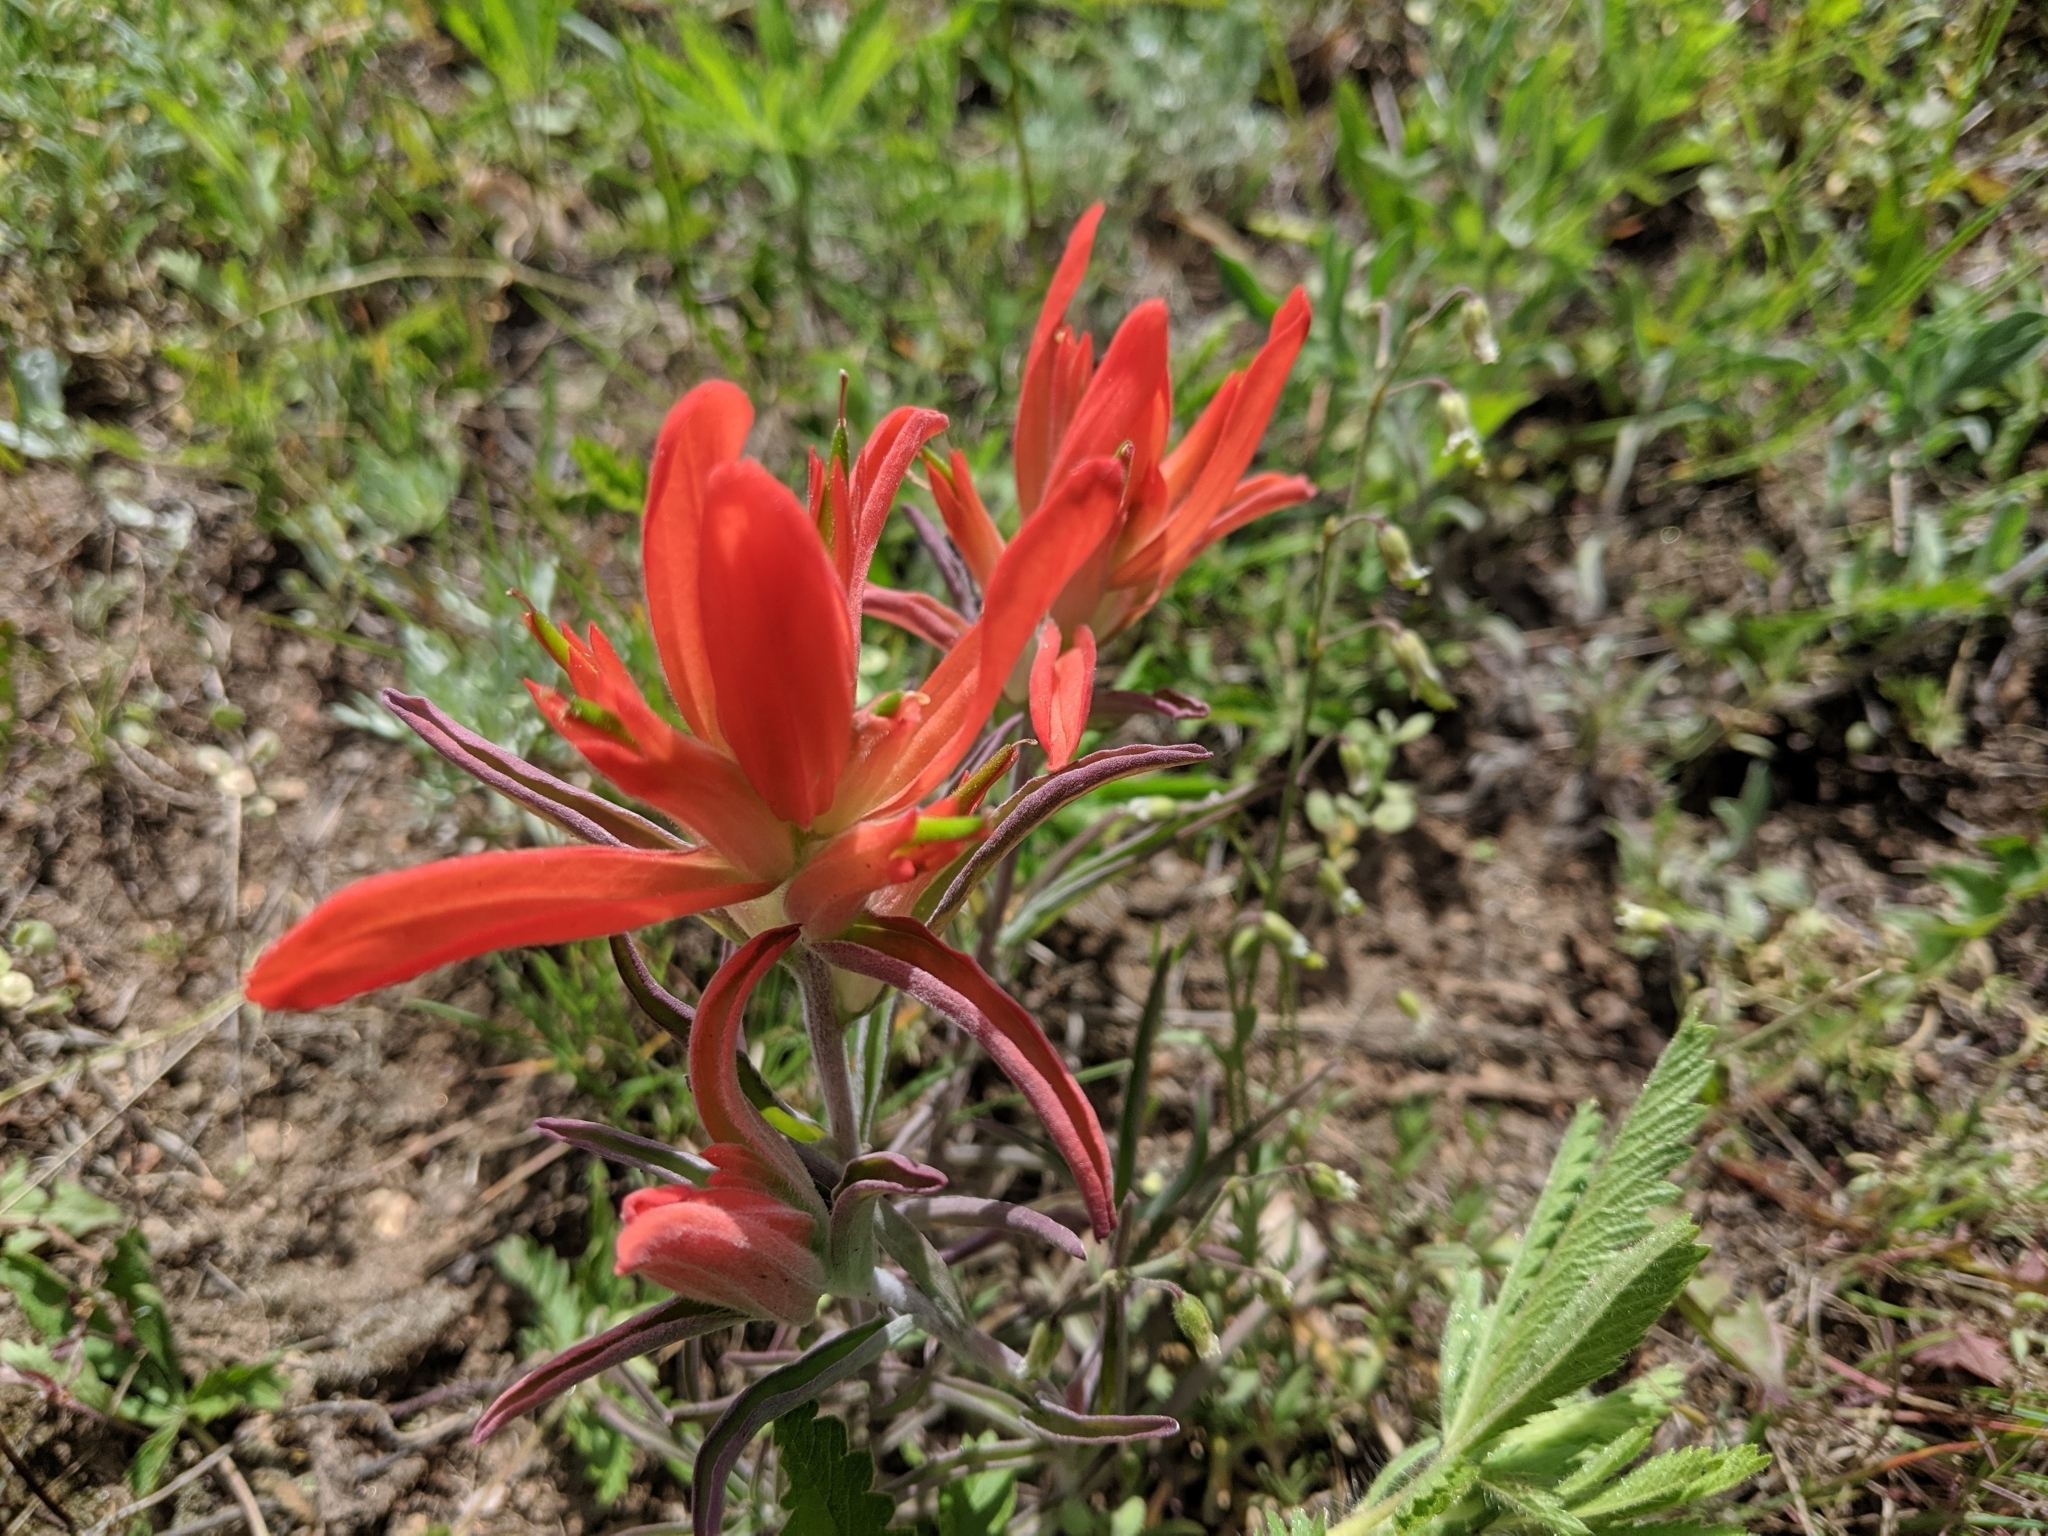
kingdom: Plantae
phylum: Tracheophyta
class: Magnoliopsida
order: Lamiales
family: Orobanchaceae
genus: Castilleja
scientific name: Castilleja integra
